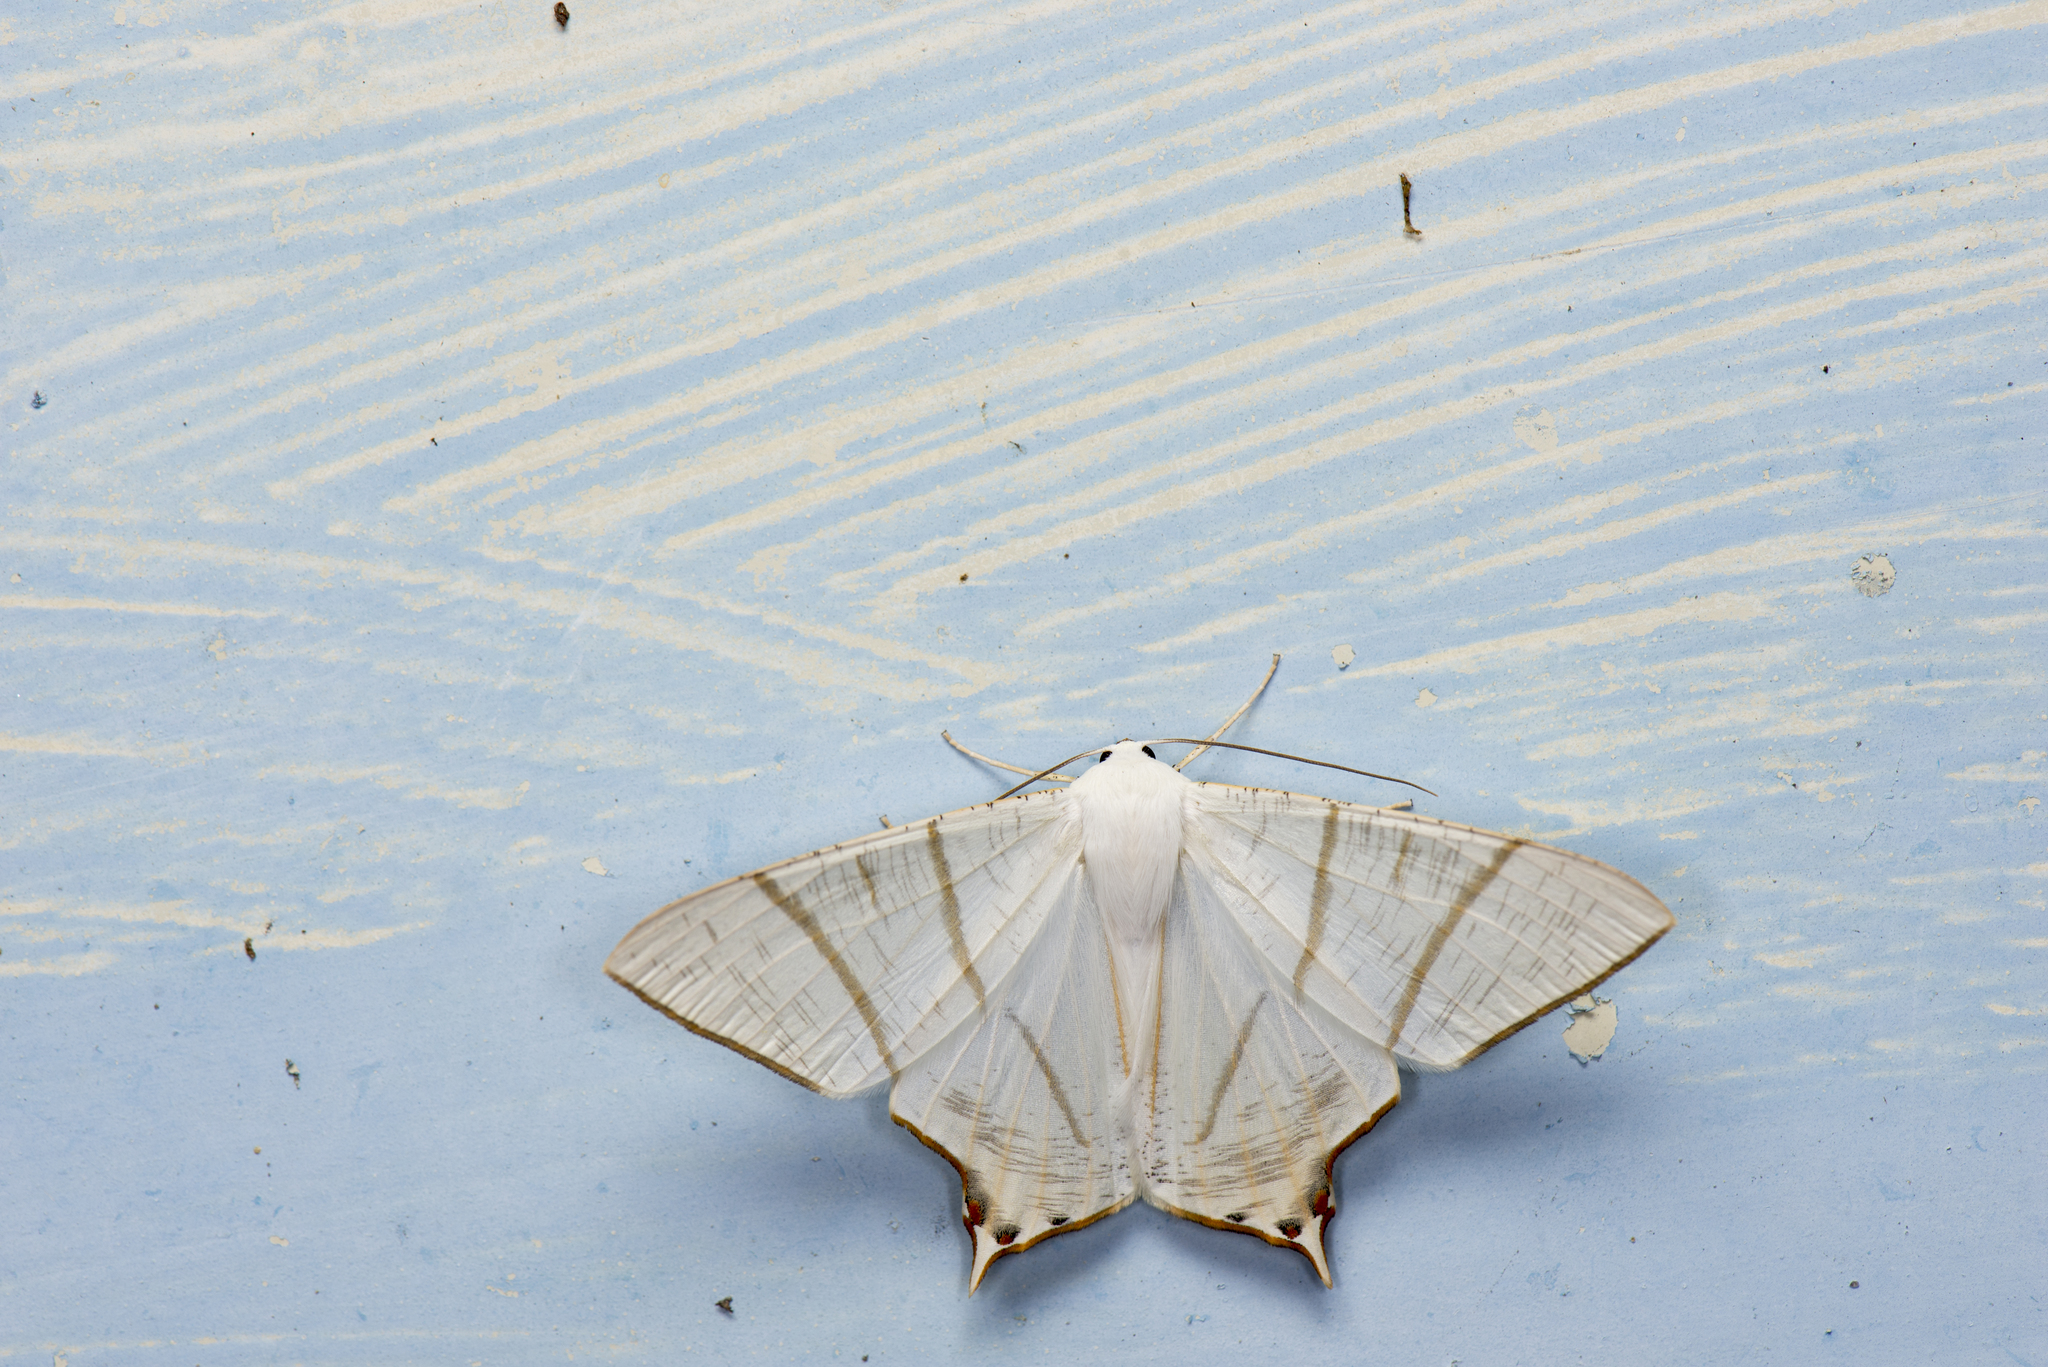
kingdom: Animalia
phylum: Arthropoda
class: Insecta
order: Lepidoptera
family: Geometridae
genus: Ourapteryx
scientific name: Ourapteryx yerburii
